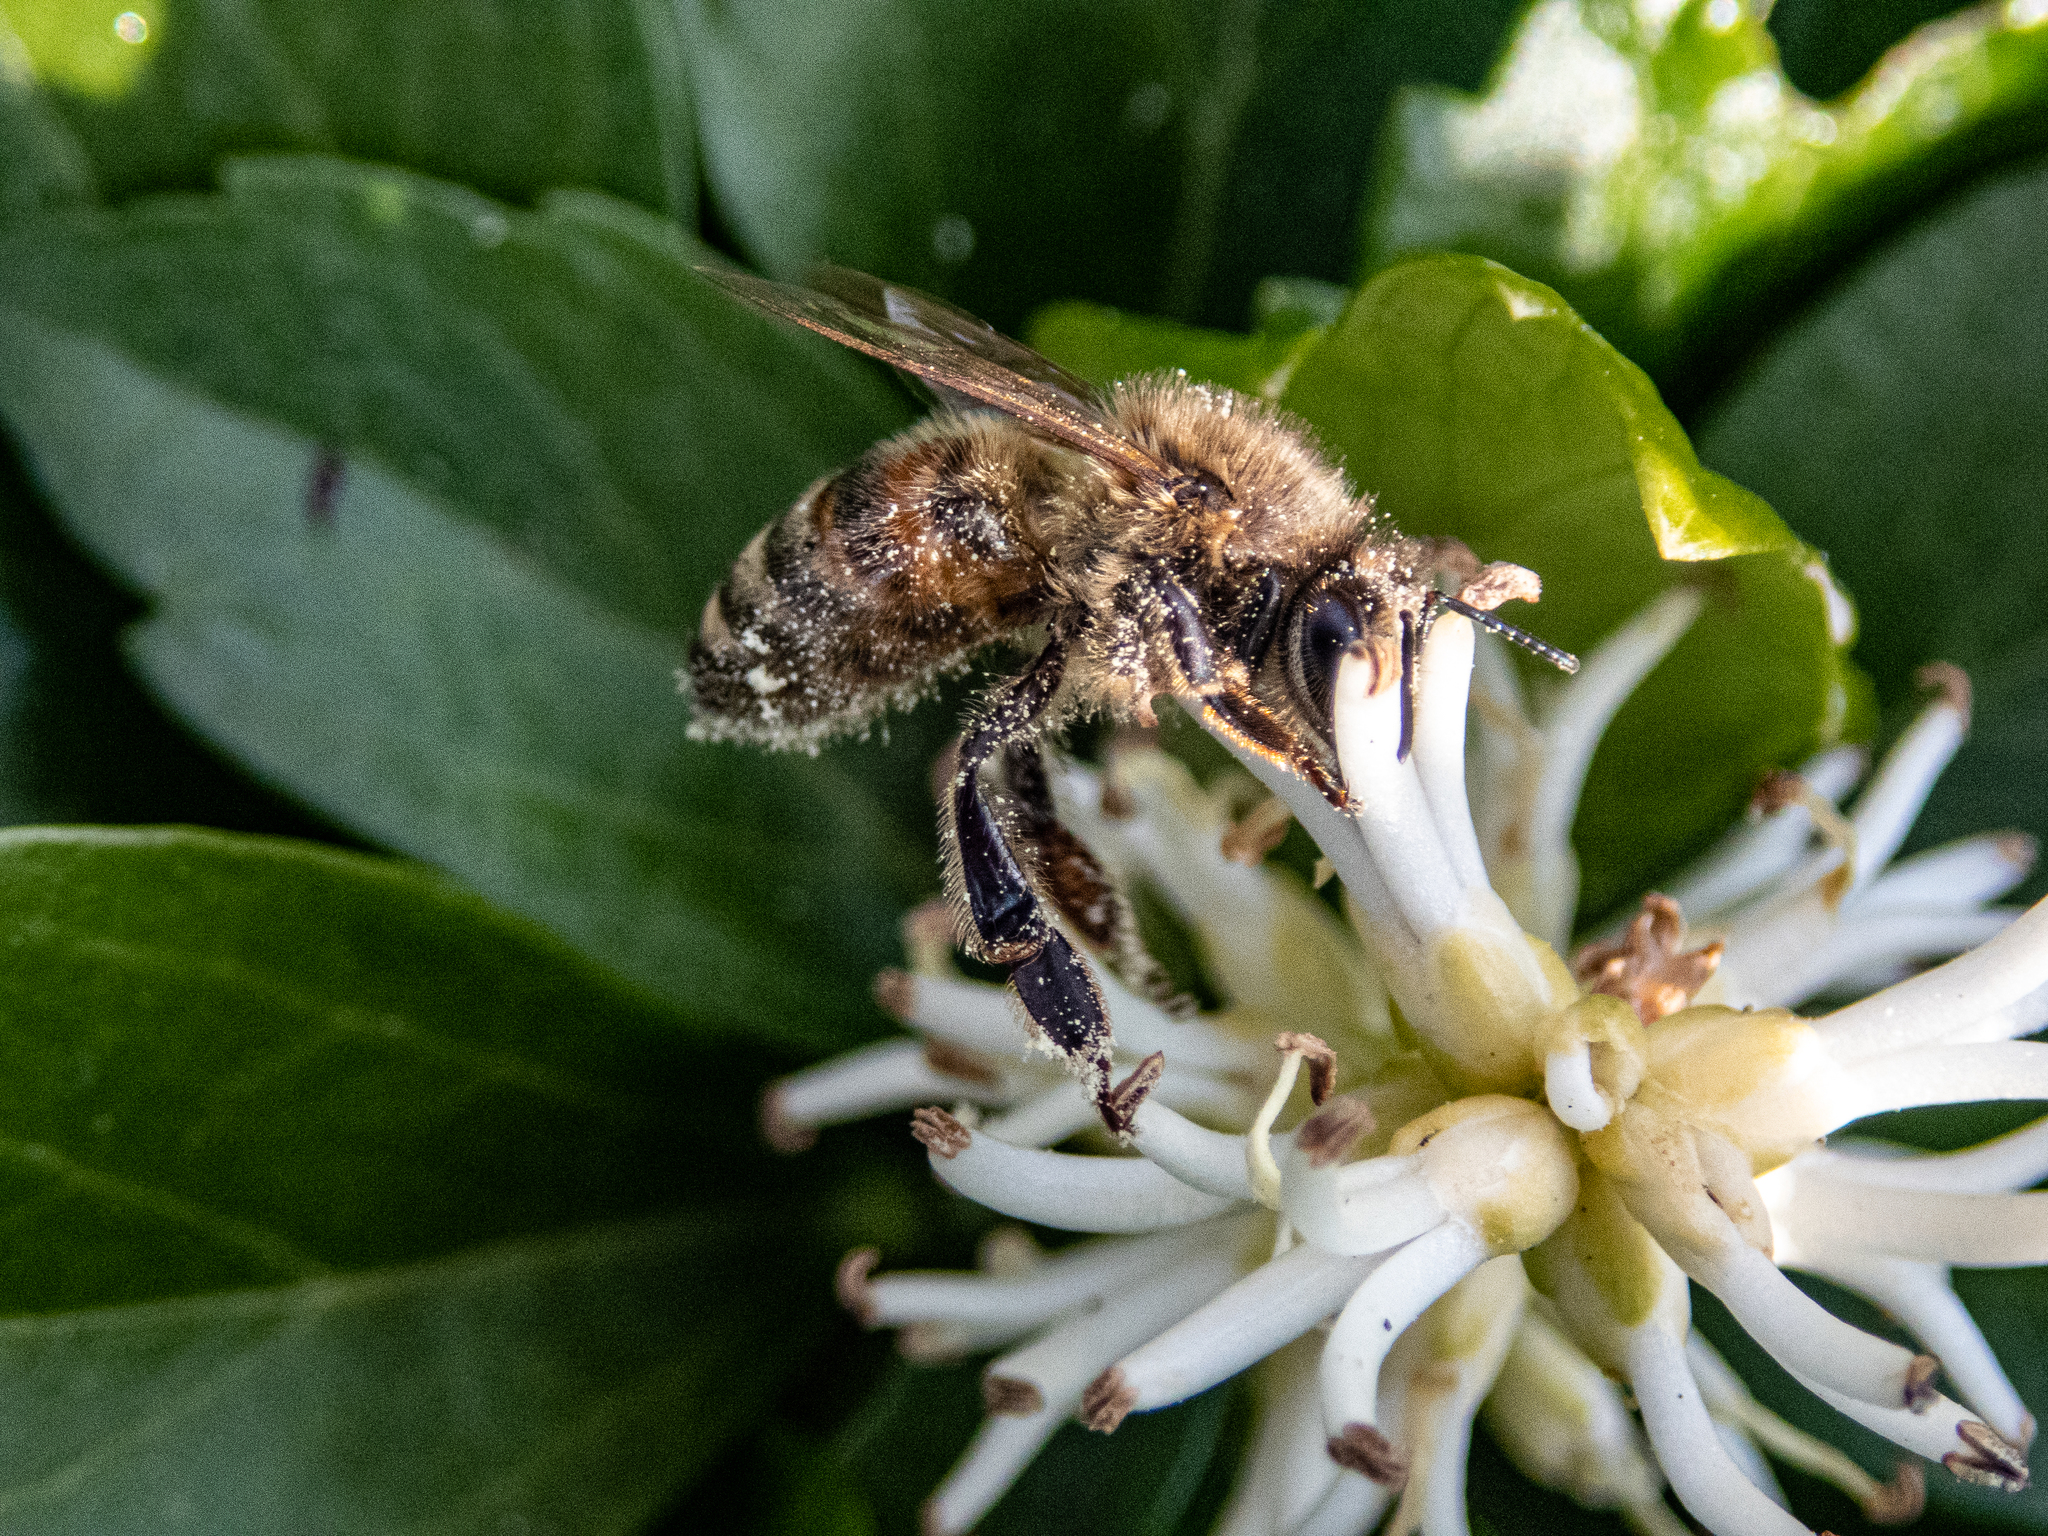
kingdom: Animalia
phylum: Arthropoda
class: Insecta
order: Hymenoptera
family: Apidae
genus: Apis
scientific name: Apis mellifera
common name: Honey bee
